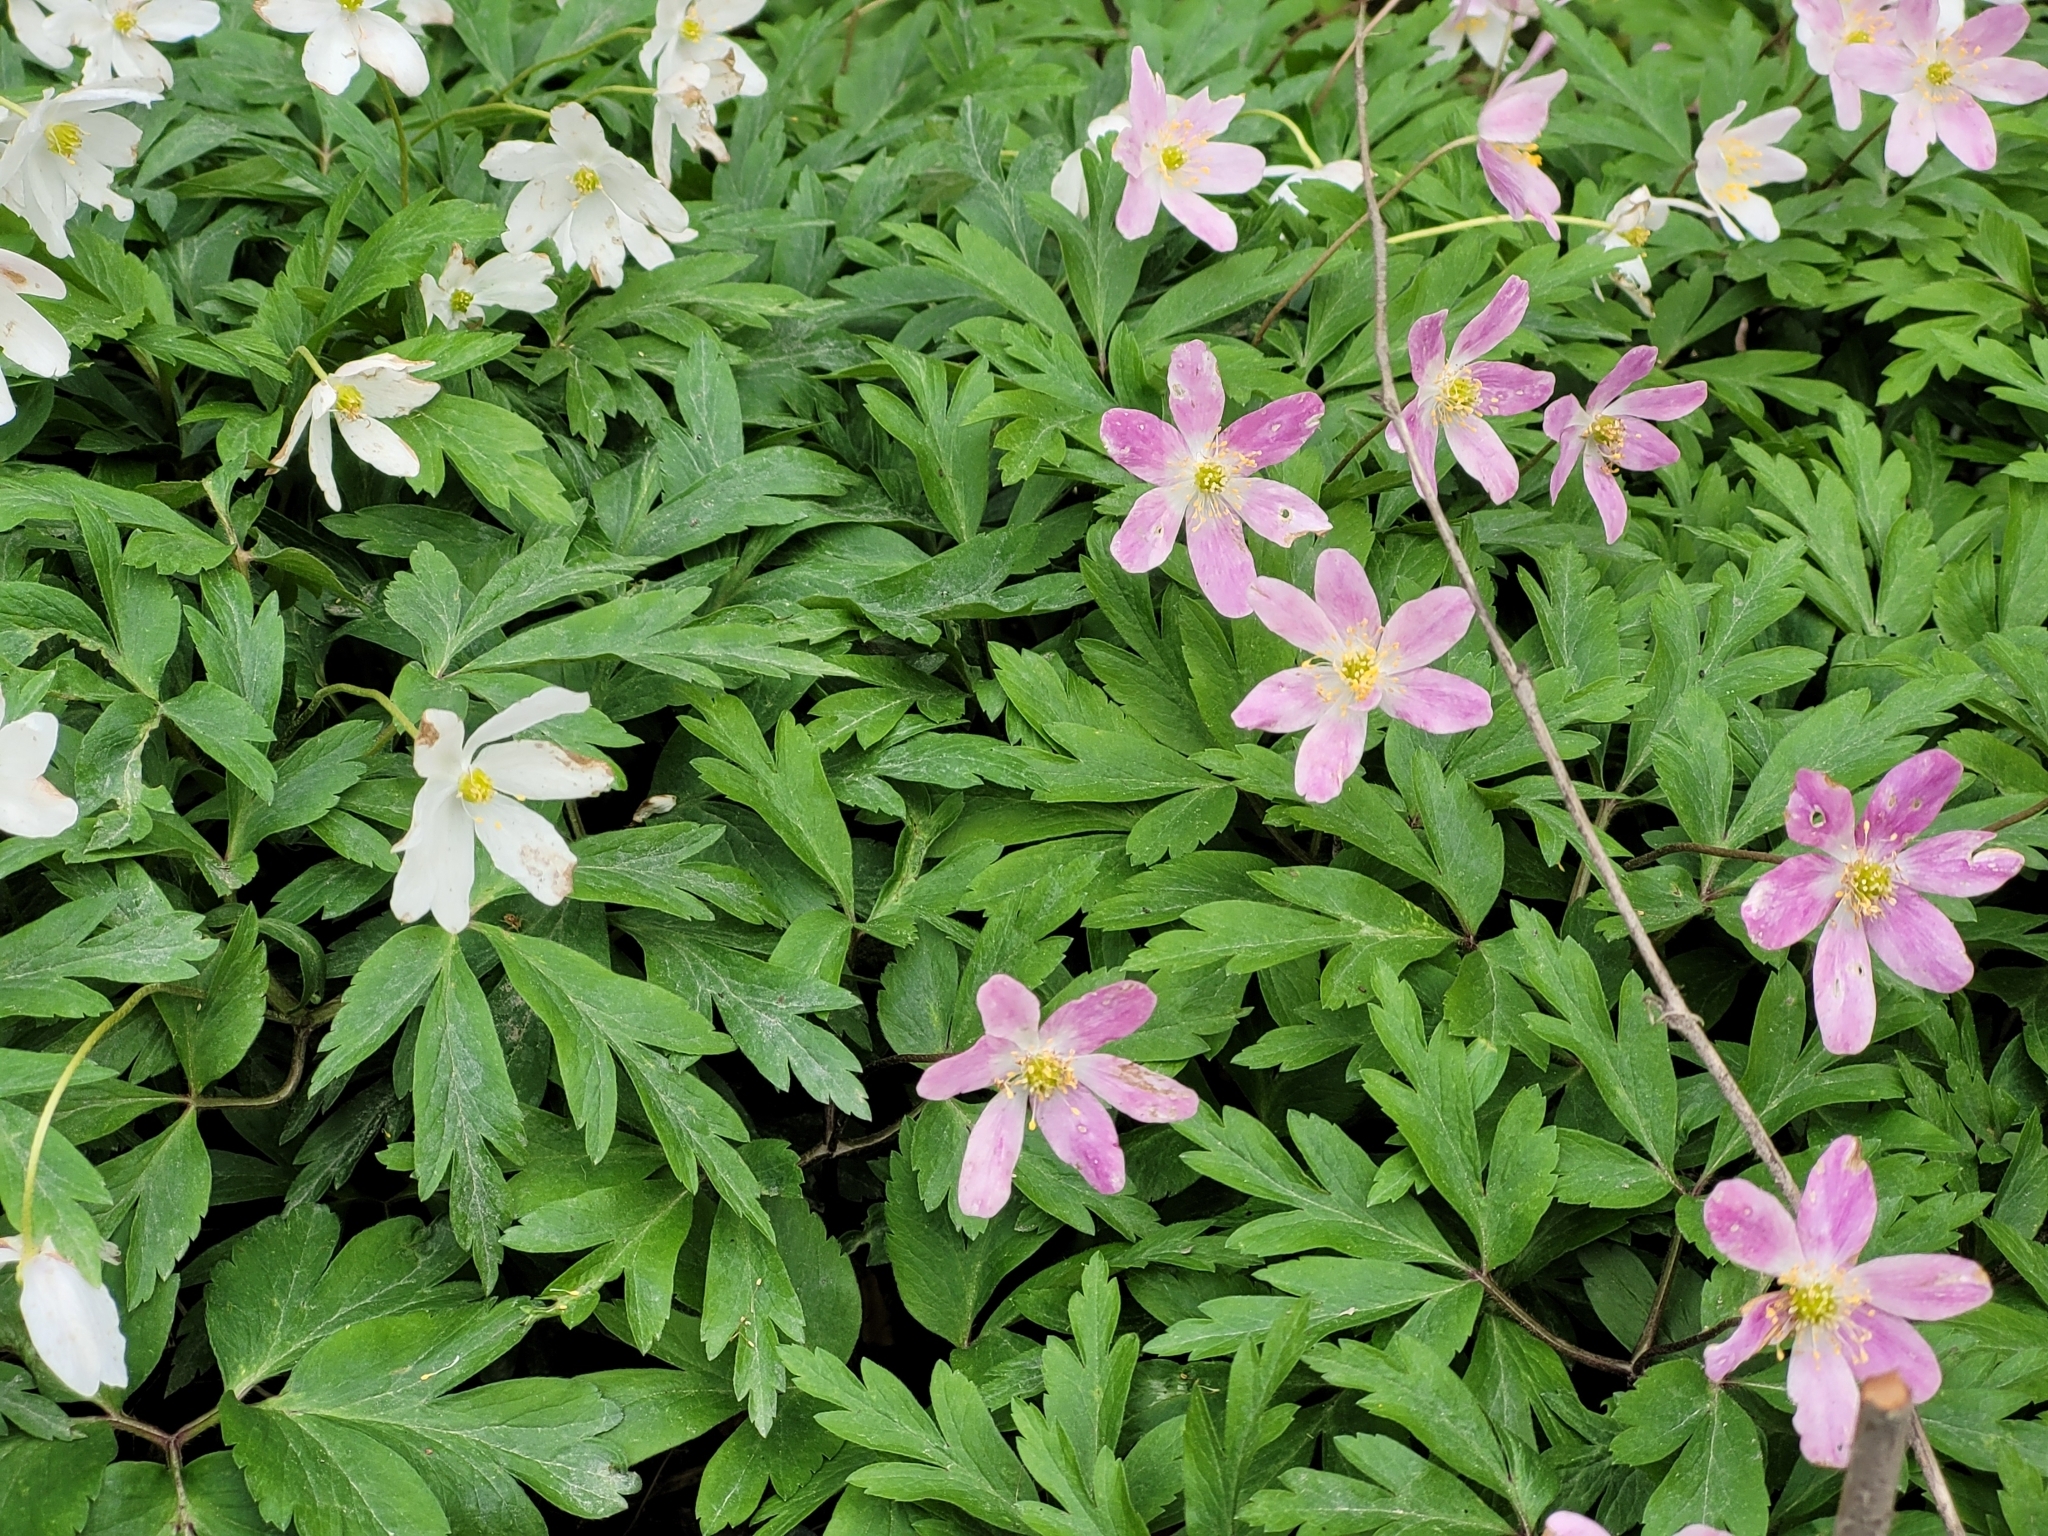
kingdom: Plantae
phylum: Tracheophyta
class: Magnoliopsida
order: Ranunculales
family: Ranunculaceae
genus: Anemone
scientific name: Anemone nemorosa
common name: Wood anemone
